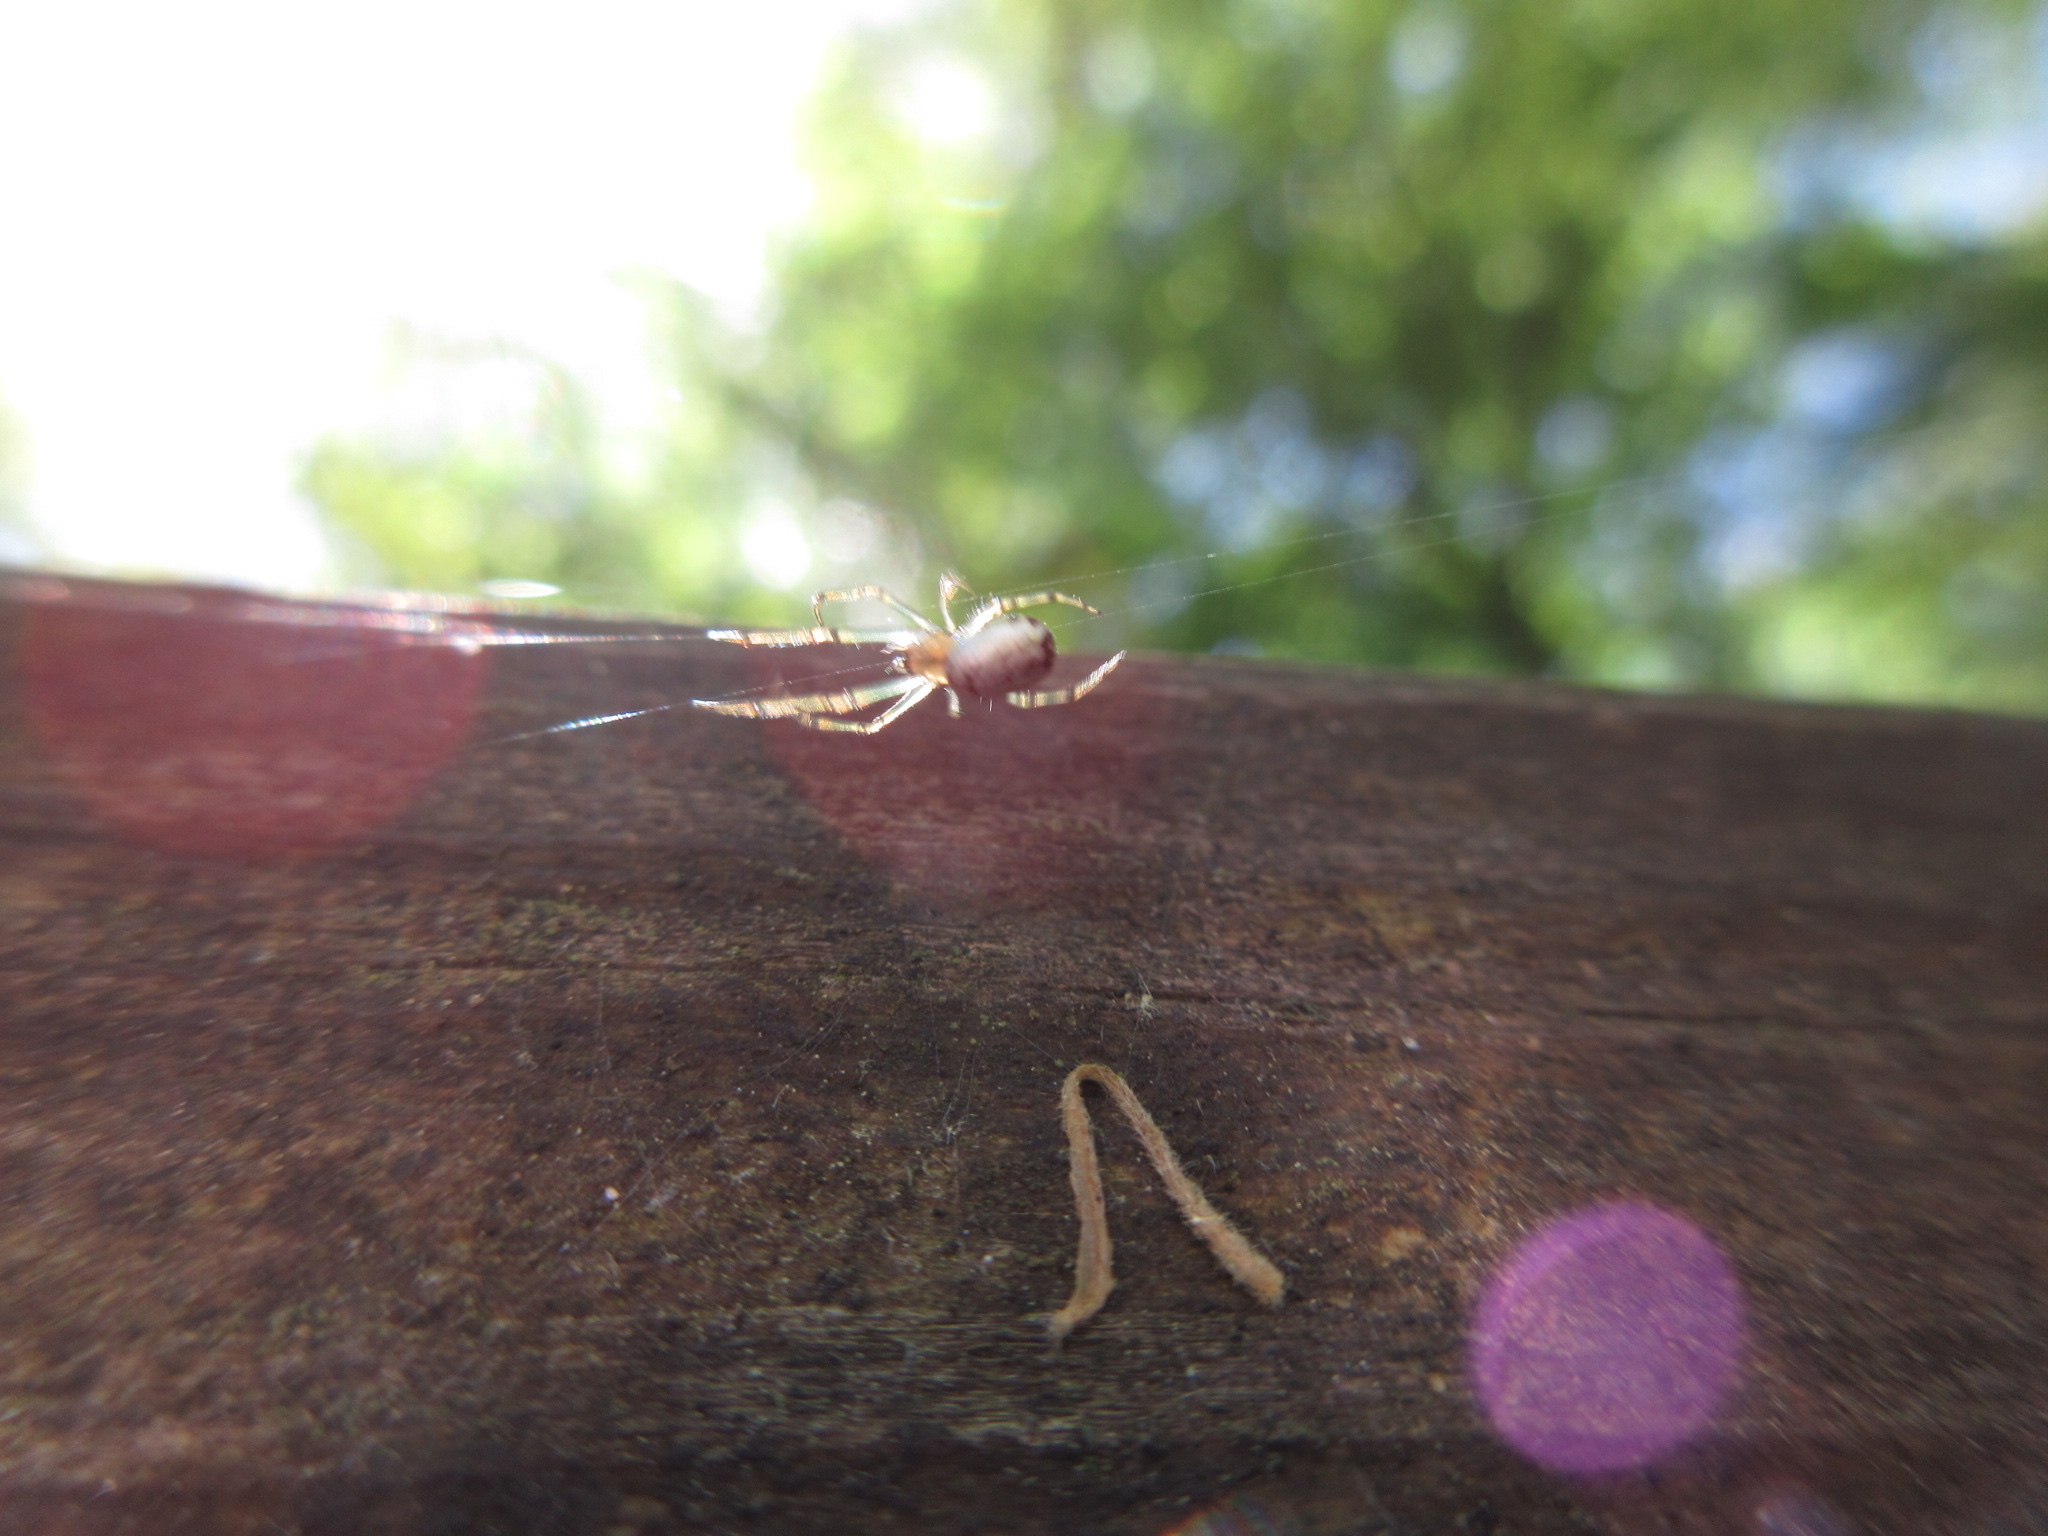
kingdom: Animalia
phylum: Arthropoda
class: Arachnida
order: Araneae
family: Tetragnathidae
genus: Leucauge
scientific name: Leucauge venusta
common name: Longjawed orb weavers
